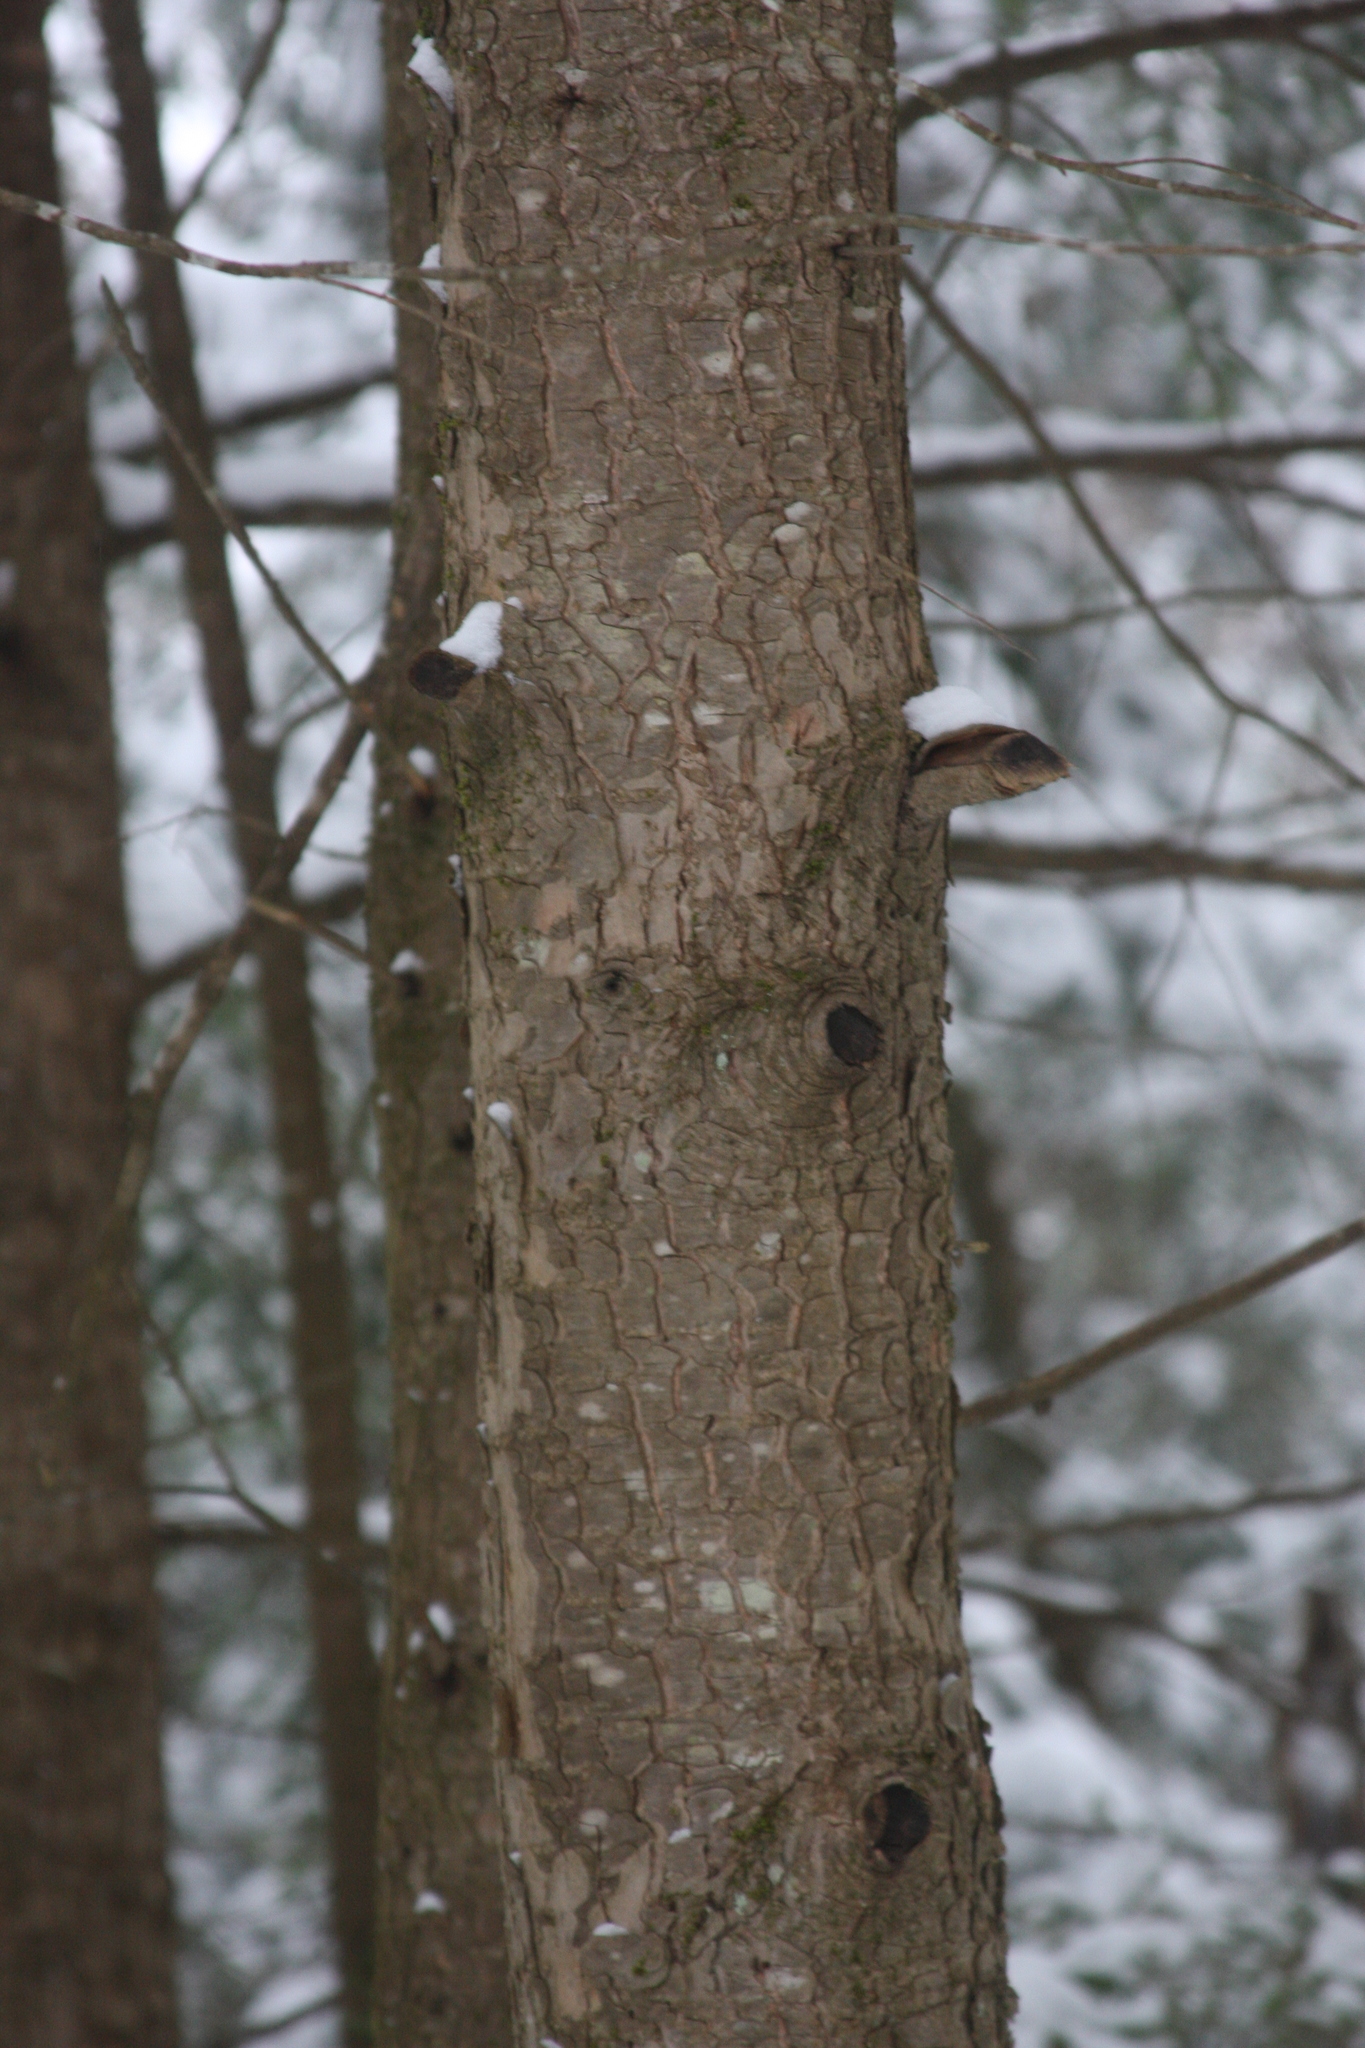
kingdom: Plantae
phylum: Tracheophyta
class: Pinopsida
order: Pinales
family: Pinaceae
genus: Tsuga
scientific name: Tsuga canadensis
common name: Eastern hemlock
